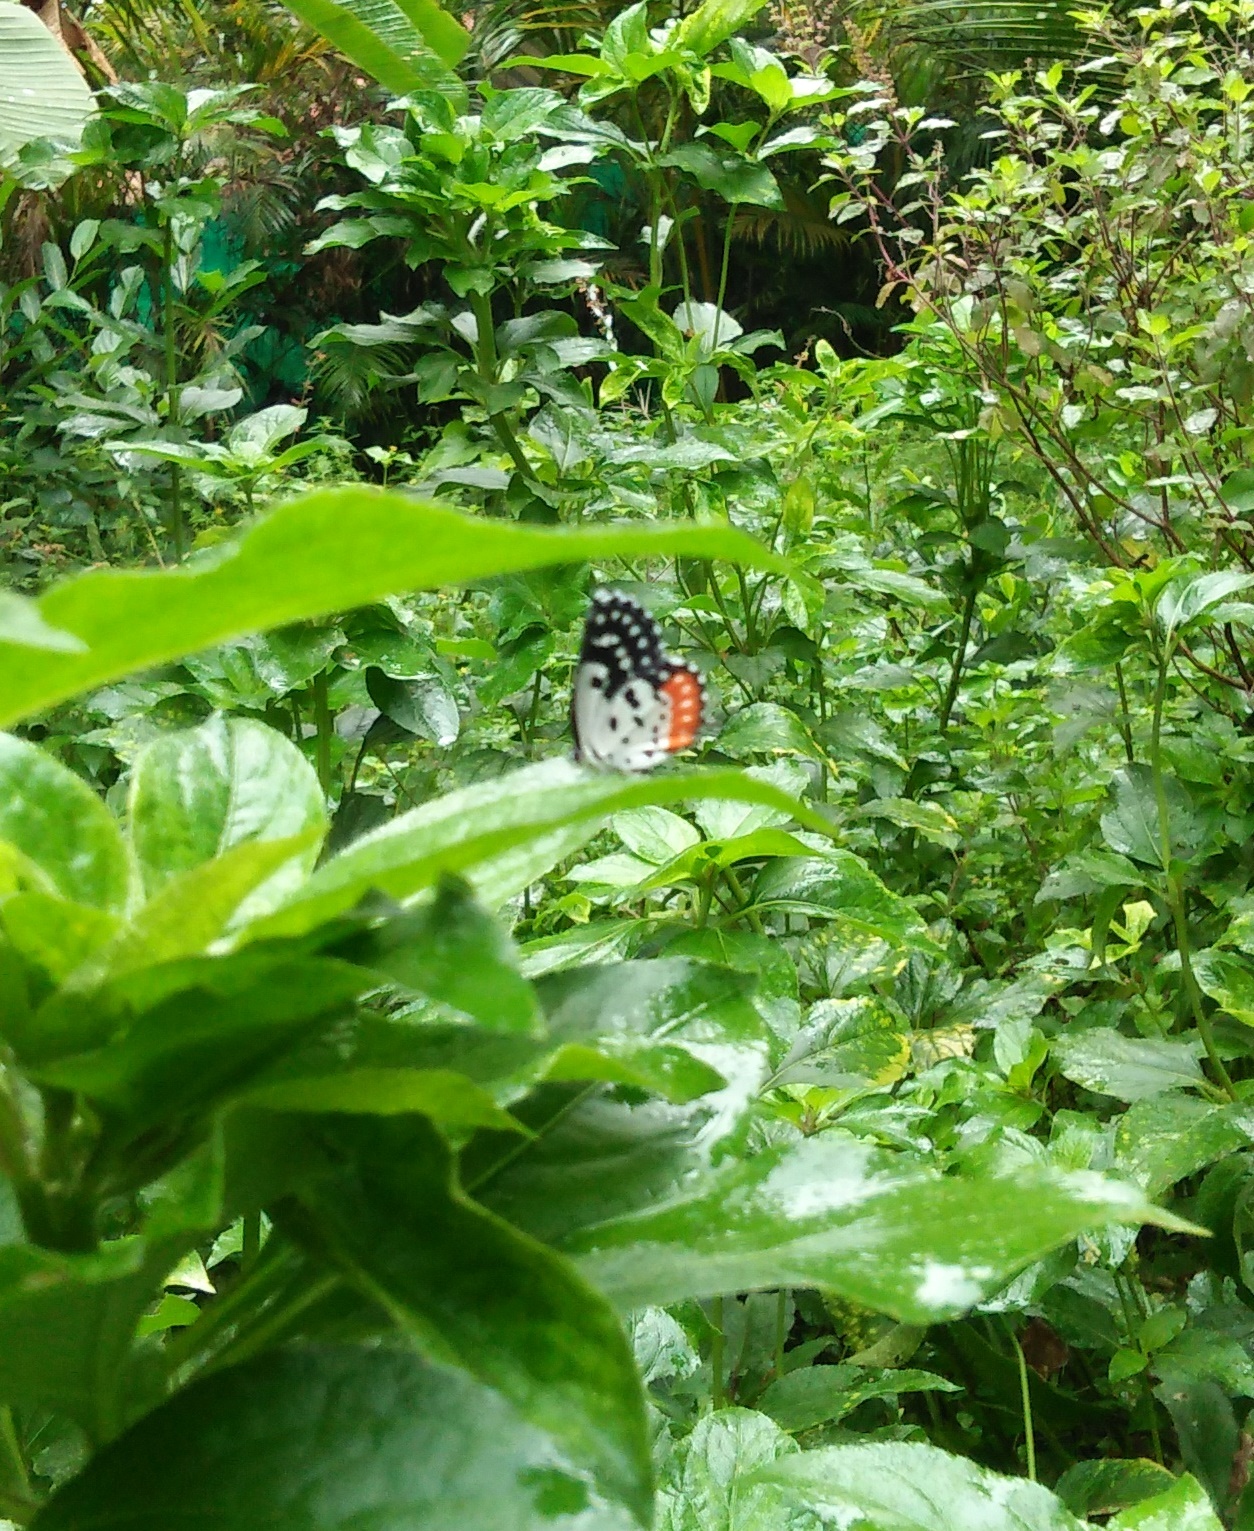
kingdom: Animalia
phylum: Arthropoda
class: Insecta
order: Lepidoptera
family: Lycaenidae
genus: Talicada
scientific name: Talicada nyseus
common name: Red pierrot
